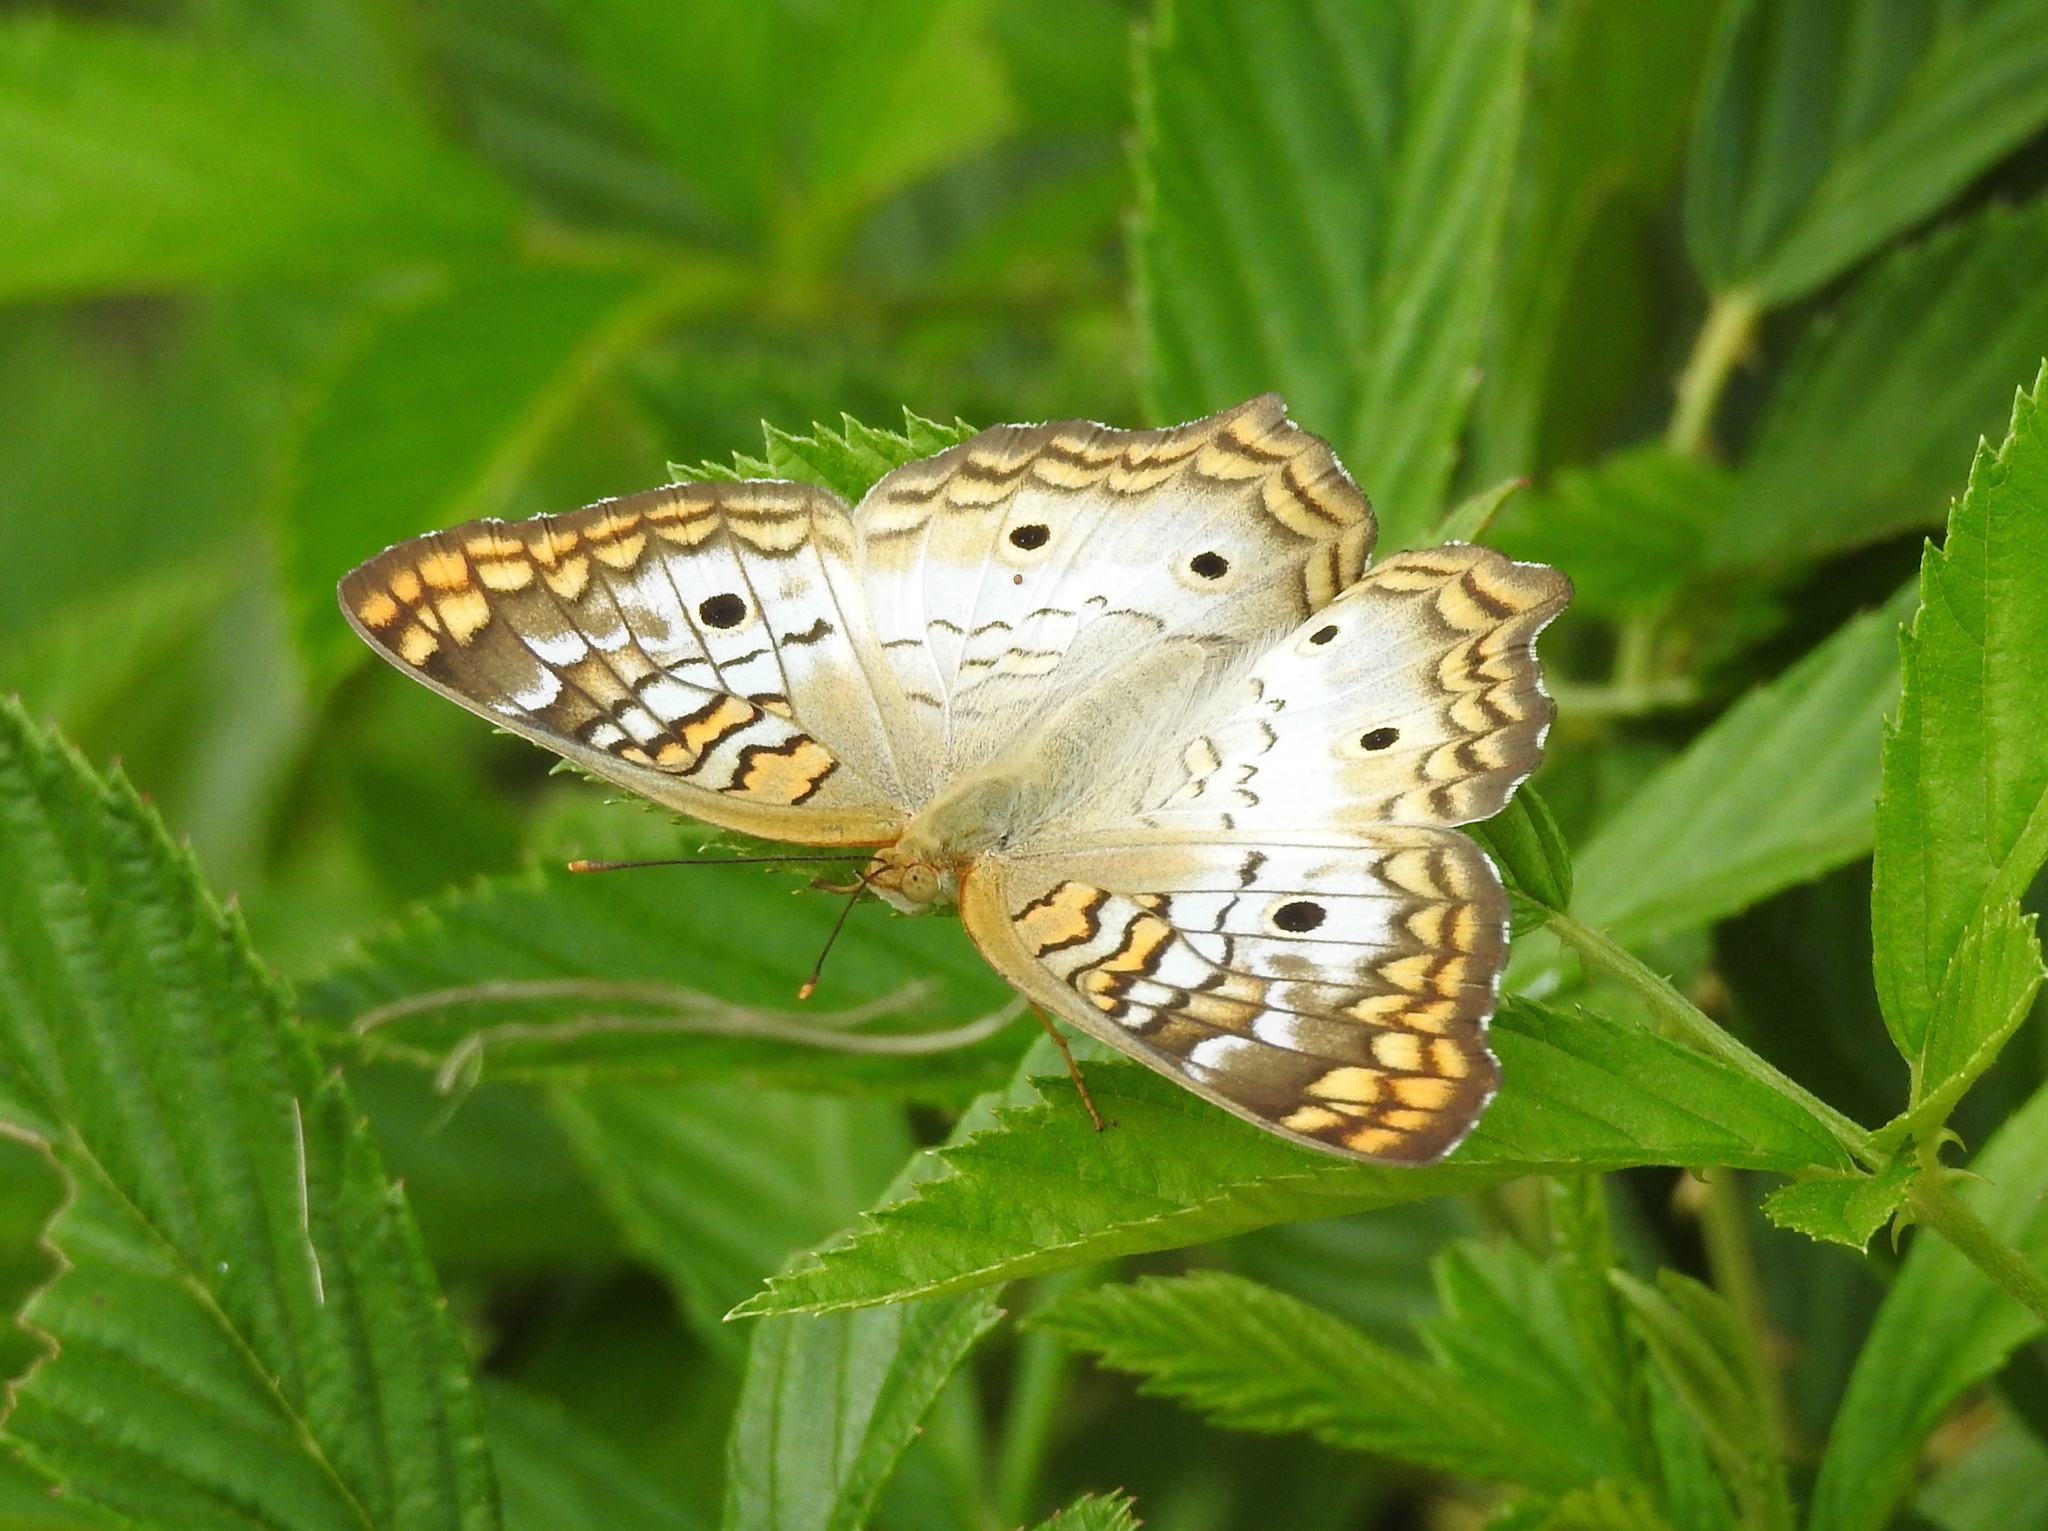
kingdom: Animalia
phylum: Arthropoda
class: Insecta
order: Lepidoptera
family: Nymphalidae
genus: Anartia
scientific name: Anartia jatrophae
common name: White peacock
